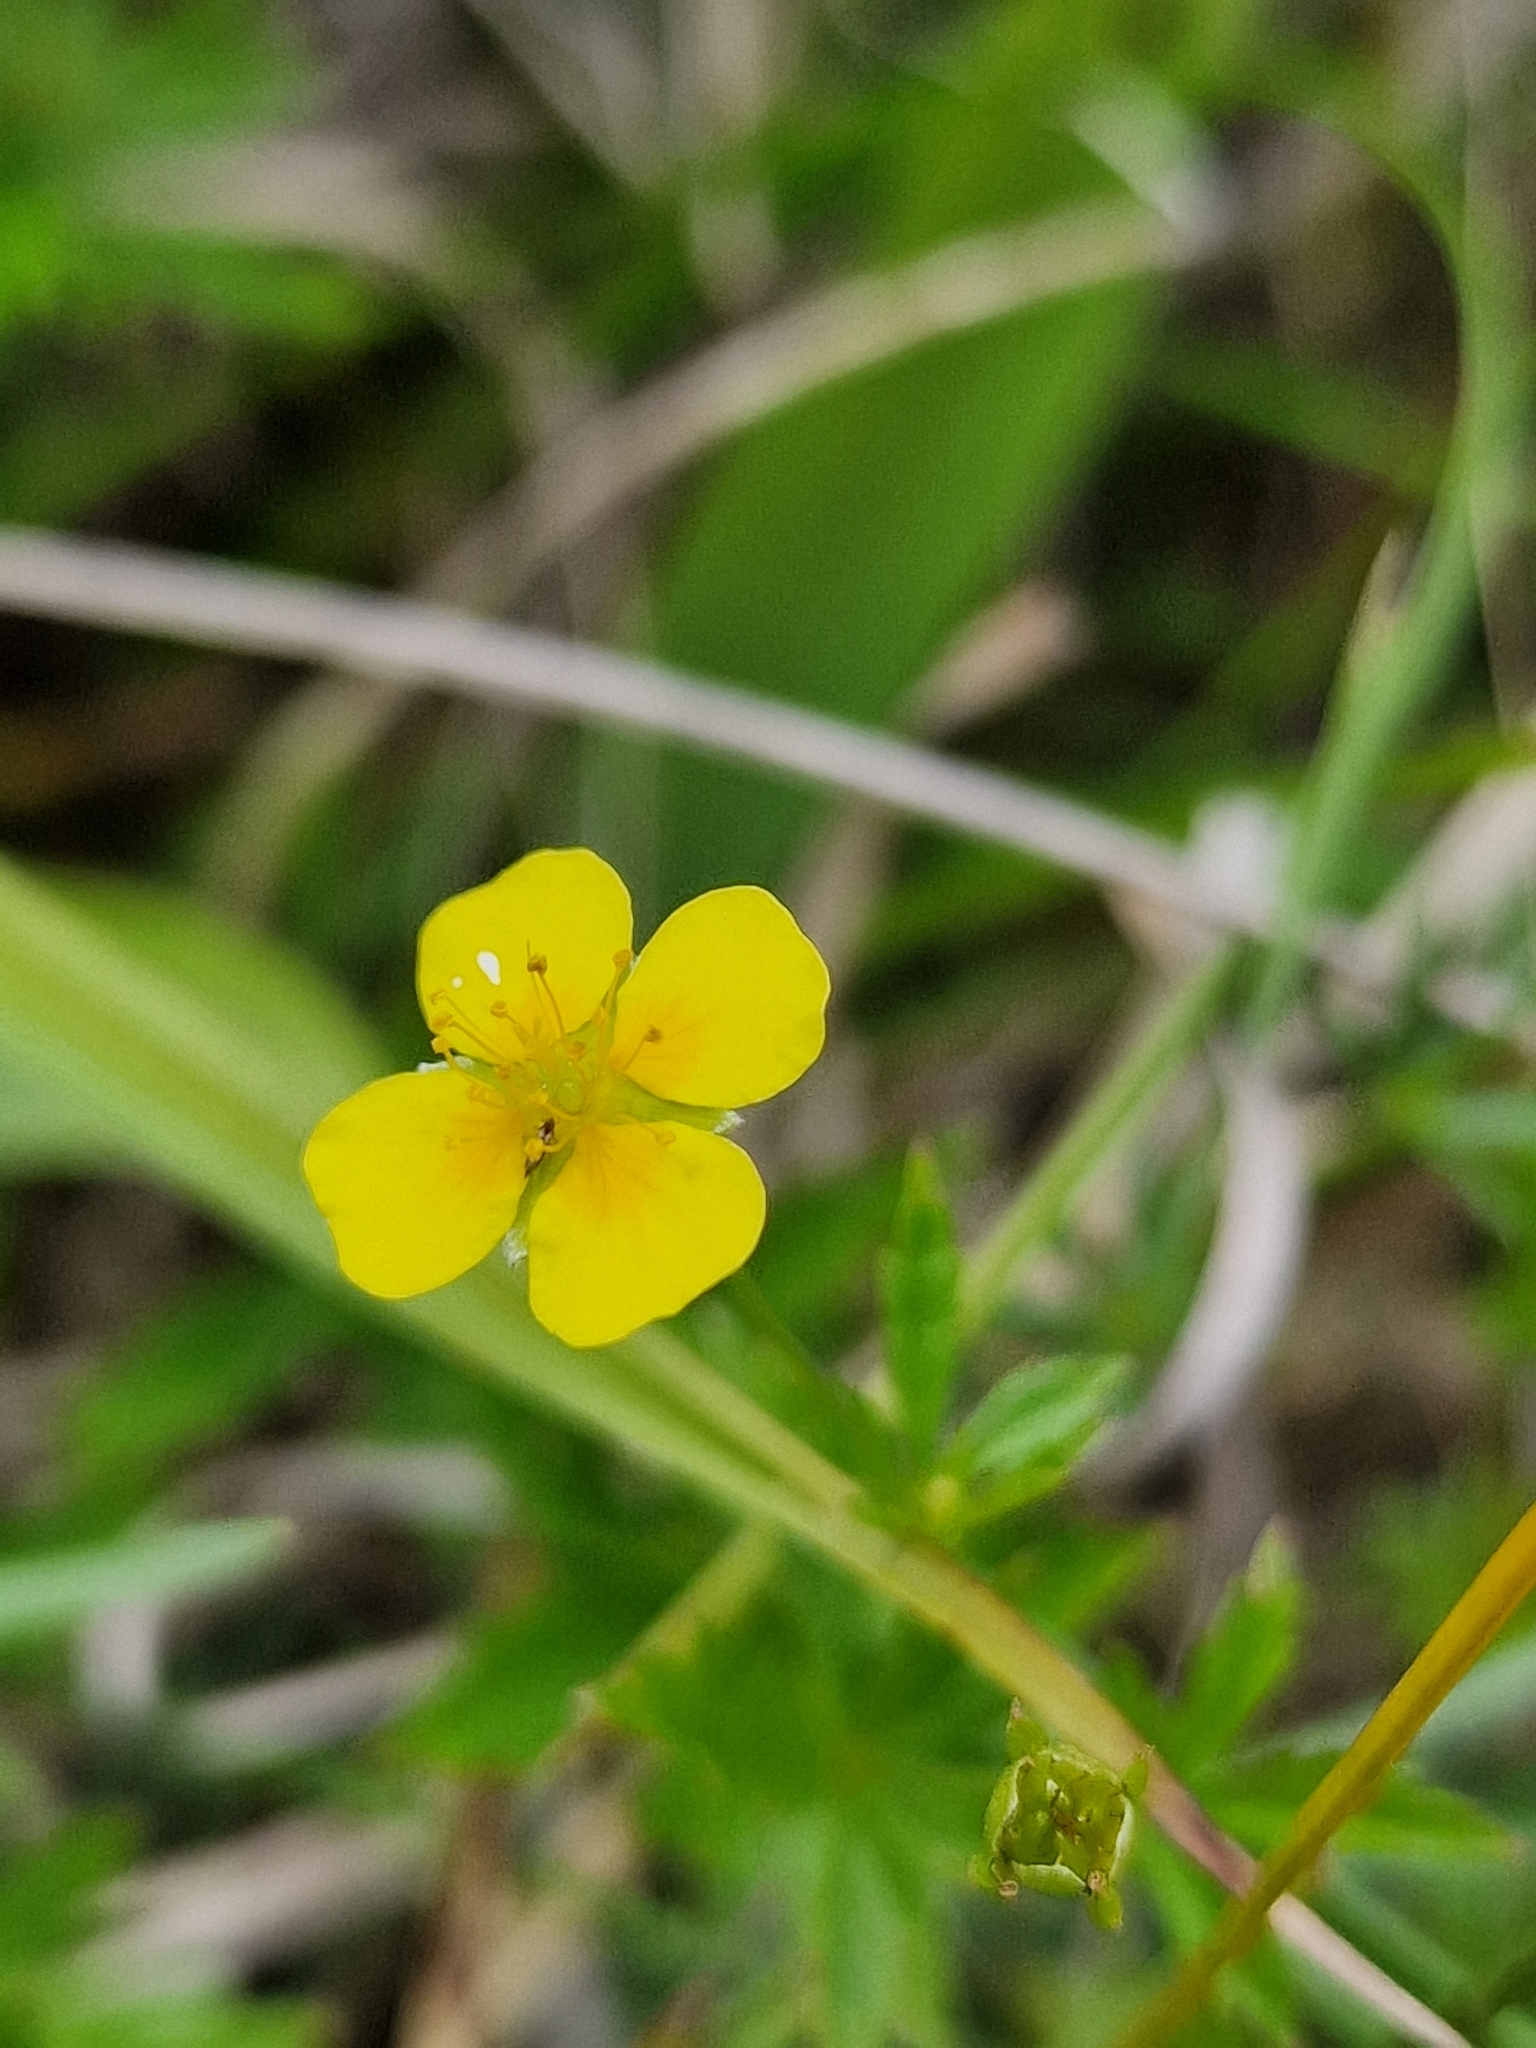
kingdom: Plantae
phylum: Tracheophyta
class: Magnoliopsida
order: Rosales
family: Rosaceae
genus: Potentilla
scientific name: Potentilla erecta
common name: Tormentil
